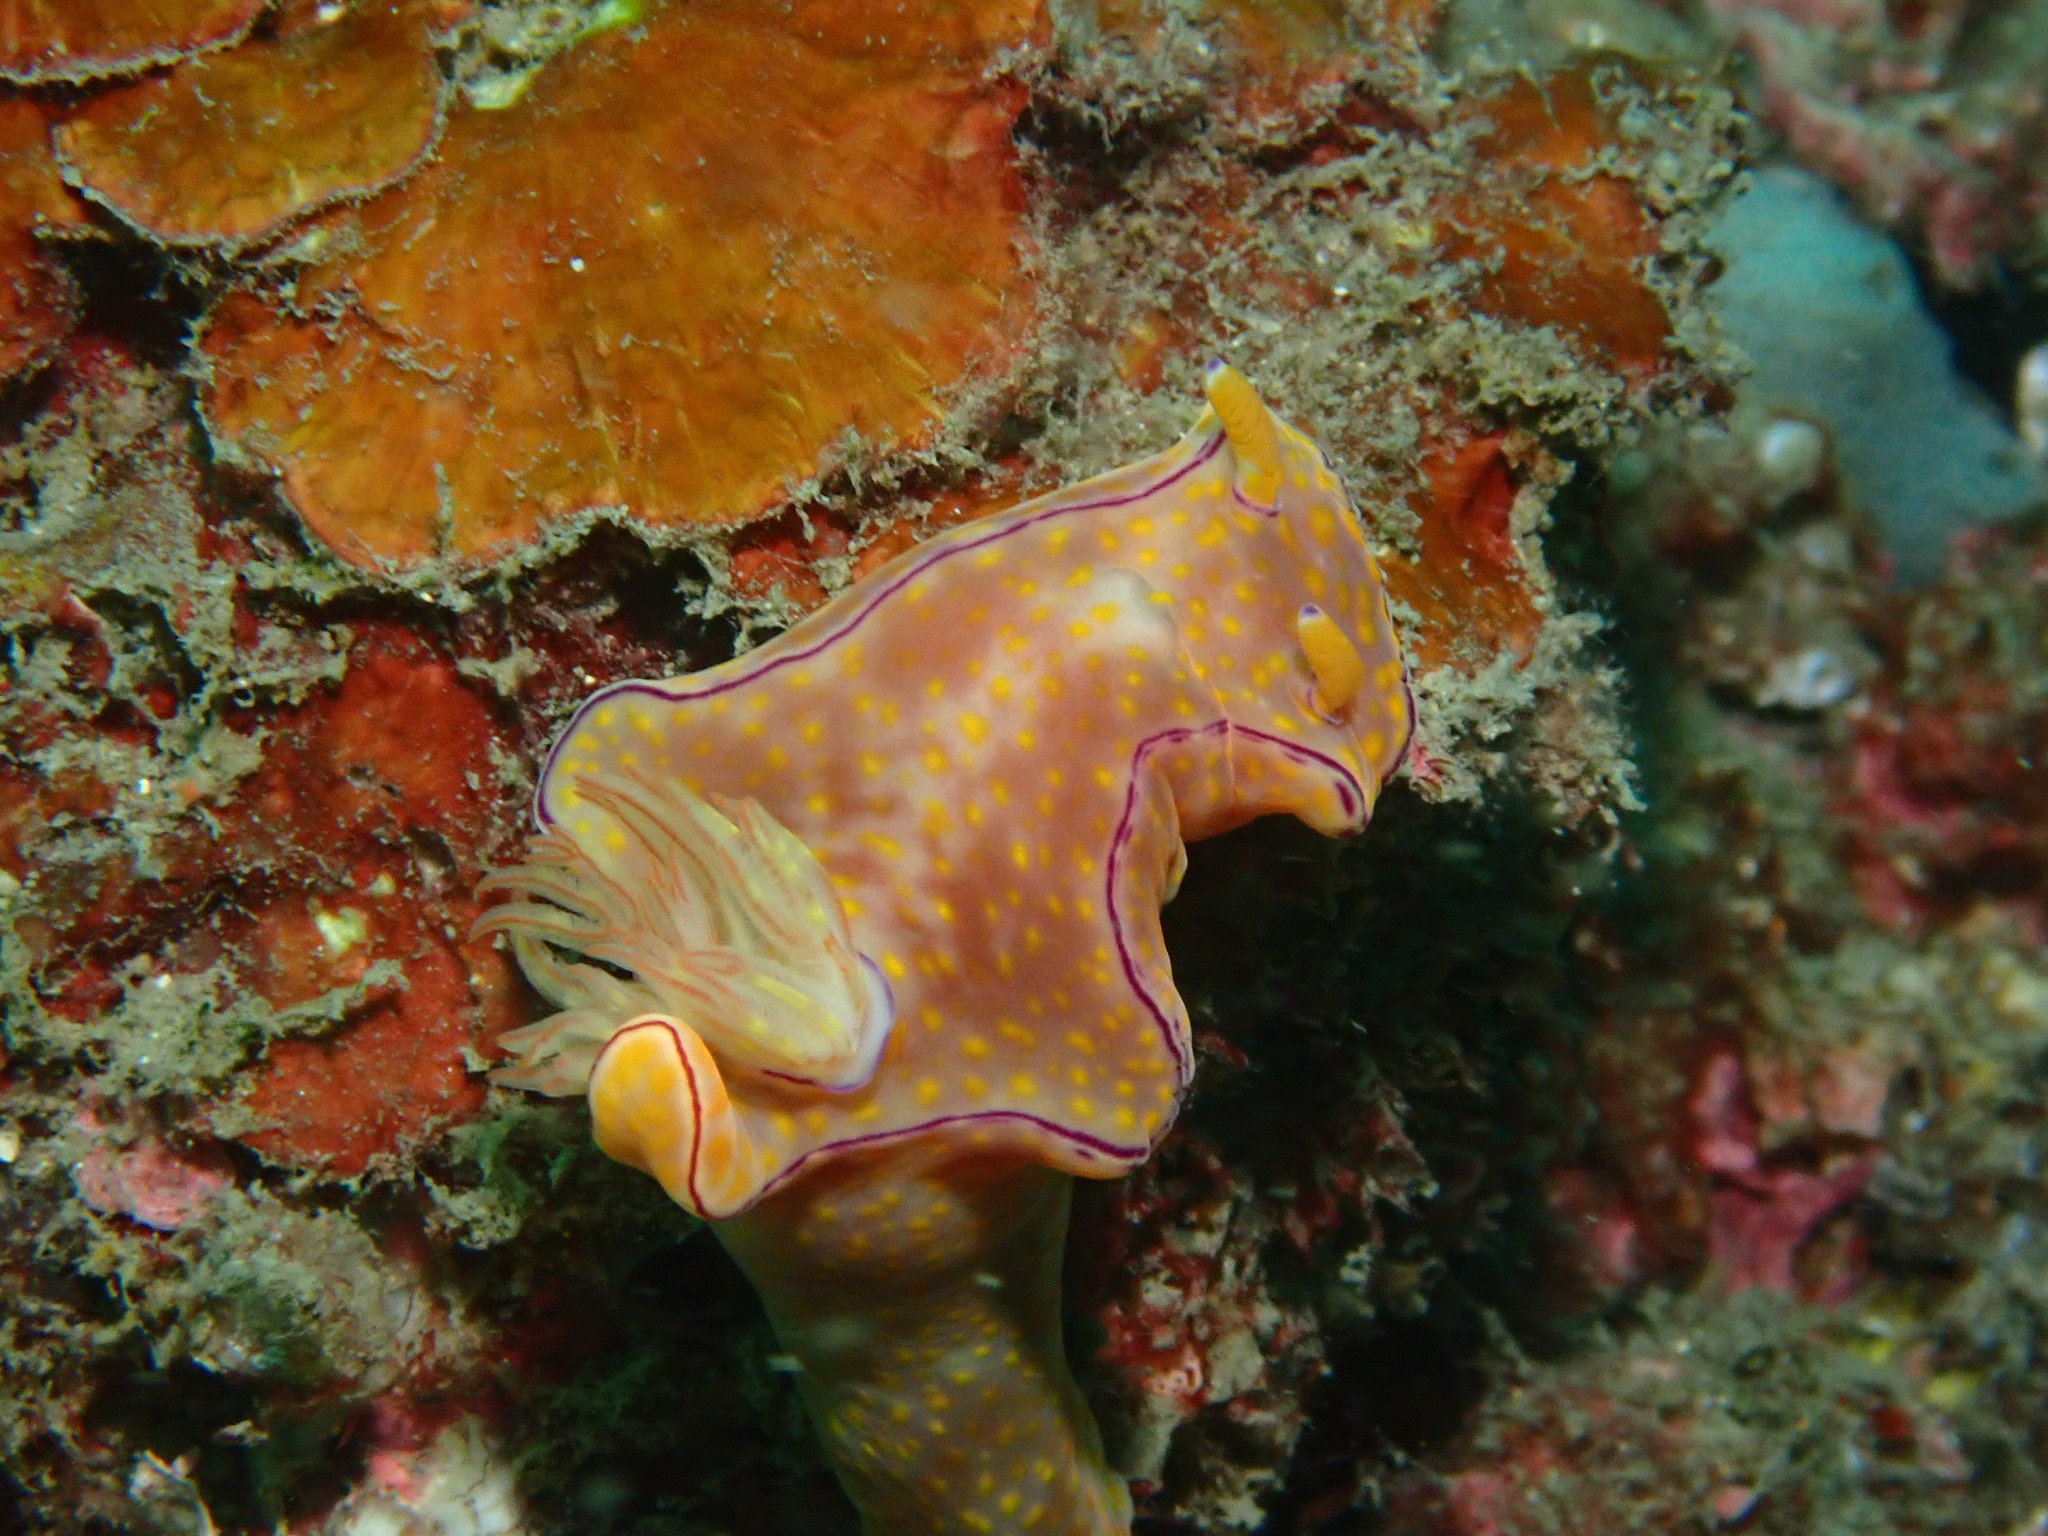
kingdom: Animalia
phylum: Mollusca
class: Gastropoda
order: Nudibranchia
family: Chromodorididae
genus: Ceratosoma
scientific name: Ceratosoma trilobatum
